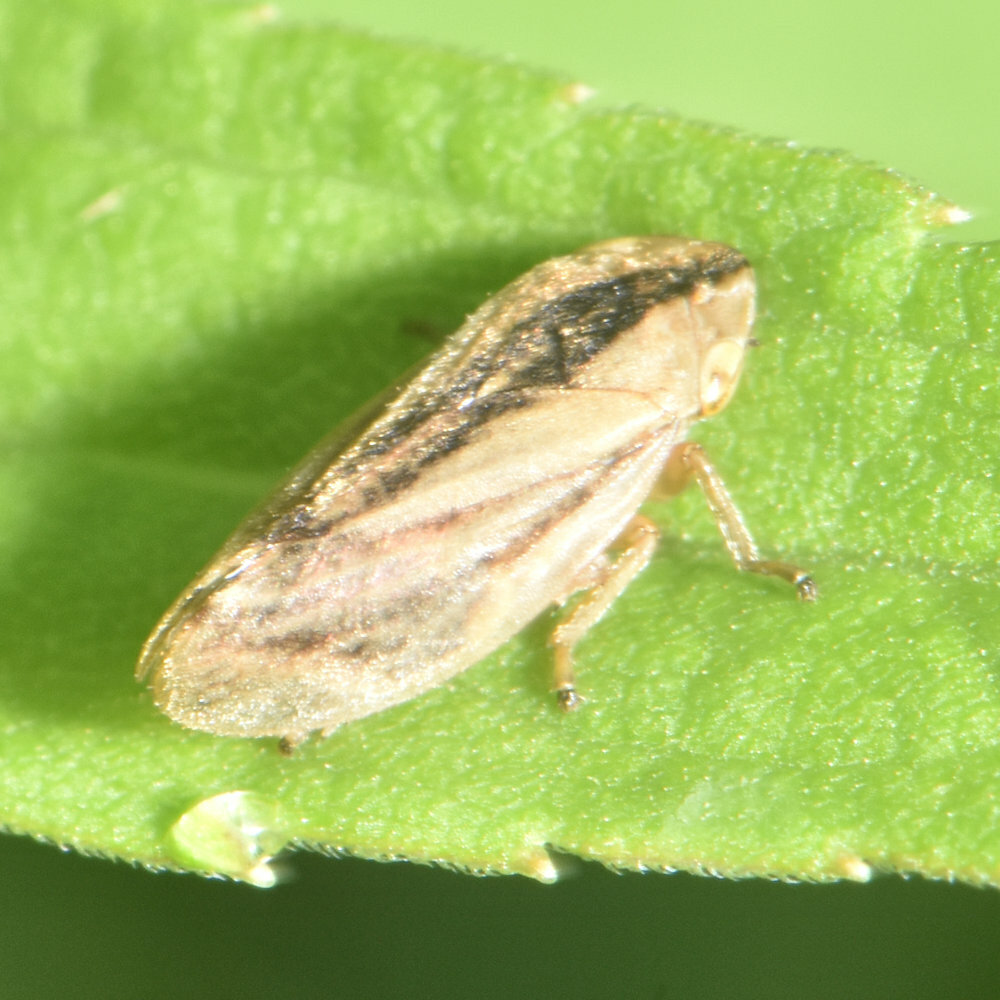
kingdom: Animalia
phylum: Arthropoda
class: Insecta
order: Hemiptera
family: Aphrophoridae
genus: Philaenus
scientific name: Philaenus spumarius
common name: Meadow spittlebug
